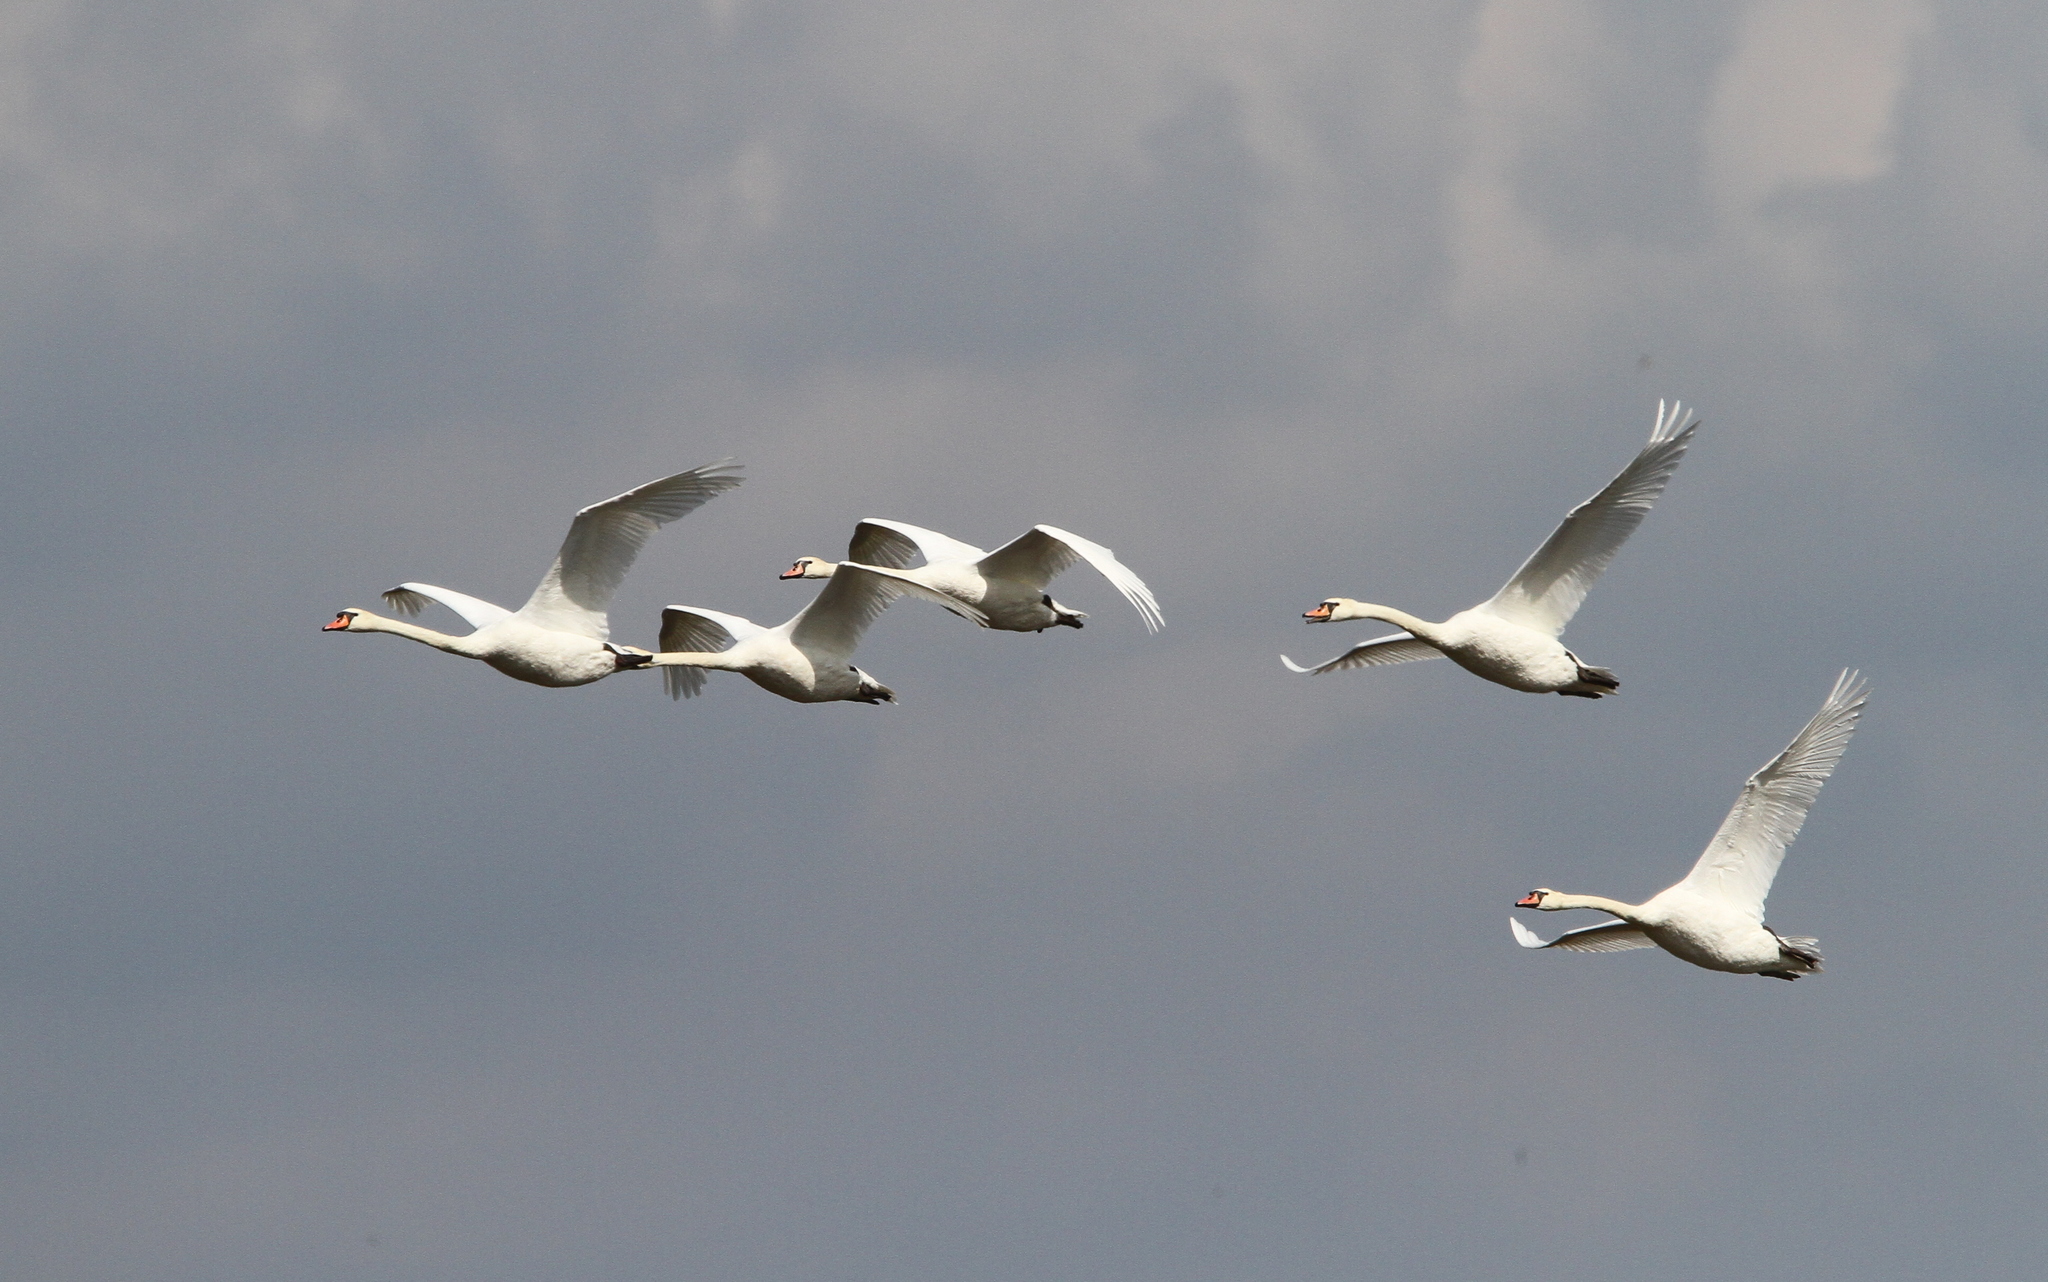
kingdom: Animalia
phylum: Chordata
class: Aves
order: Anseriformes
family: Anatidae
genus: Cygnus
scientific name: Cygnus olor
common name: Mute swan
